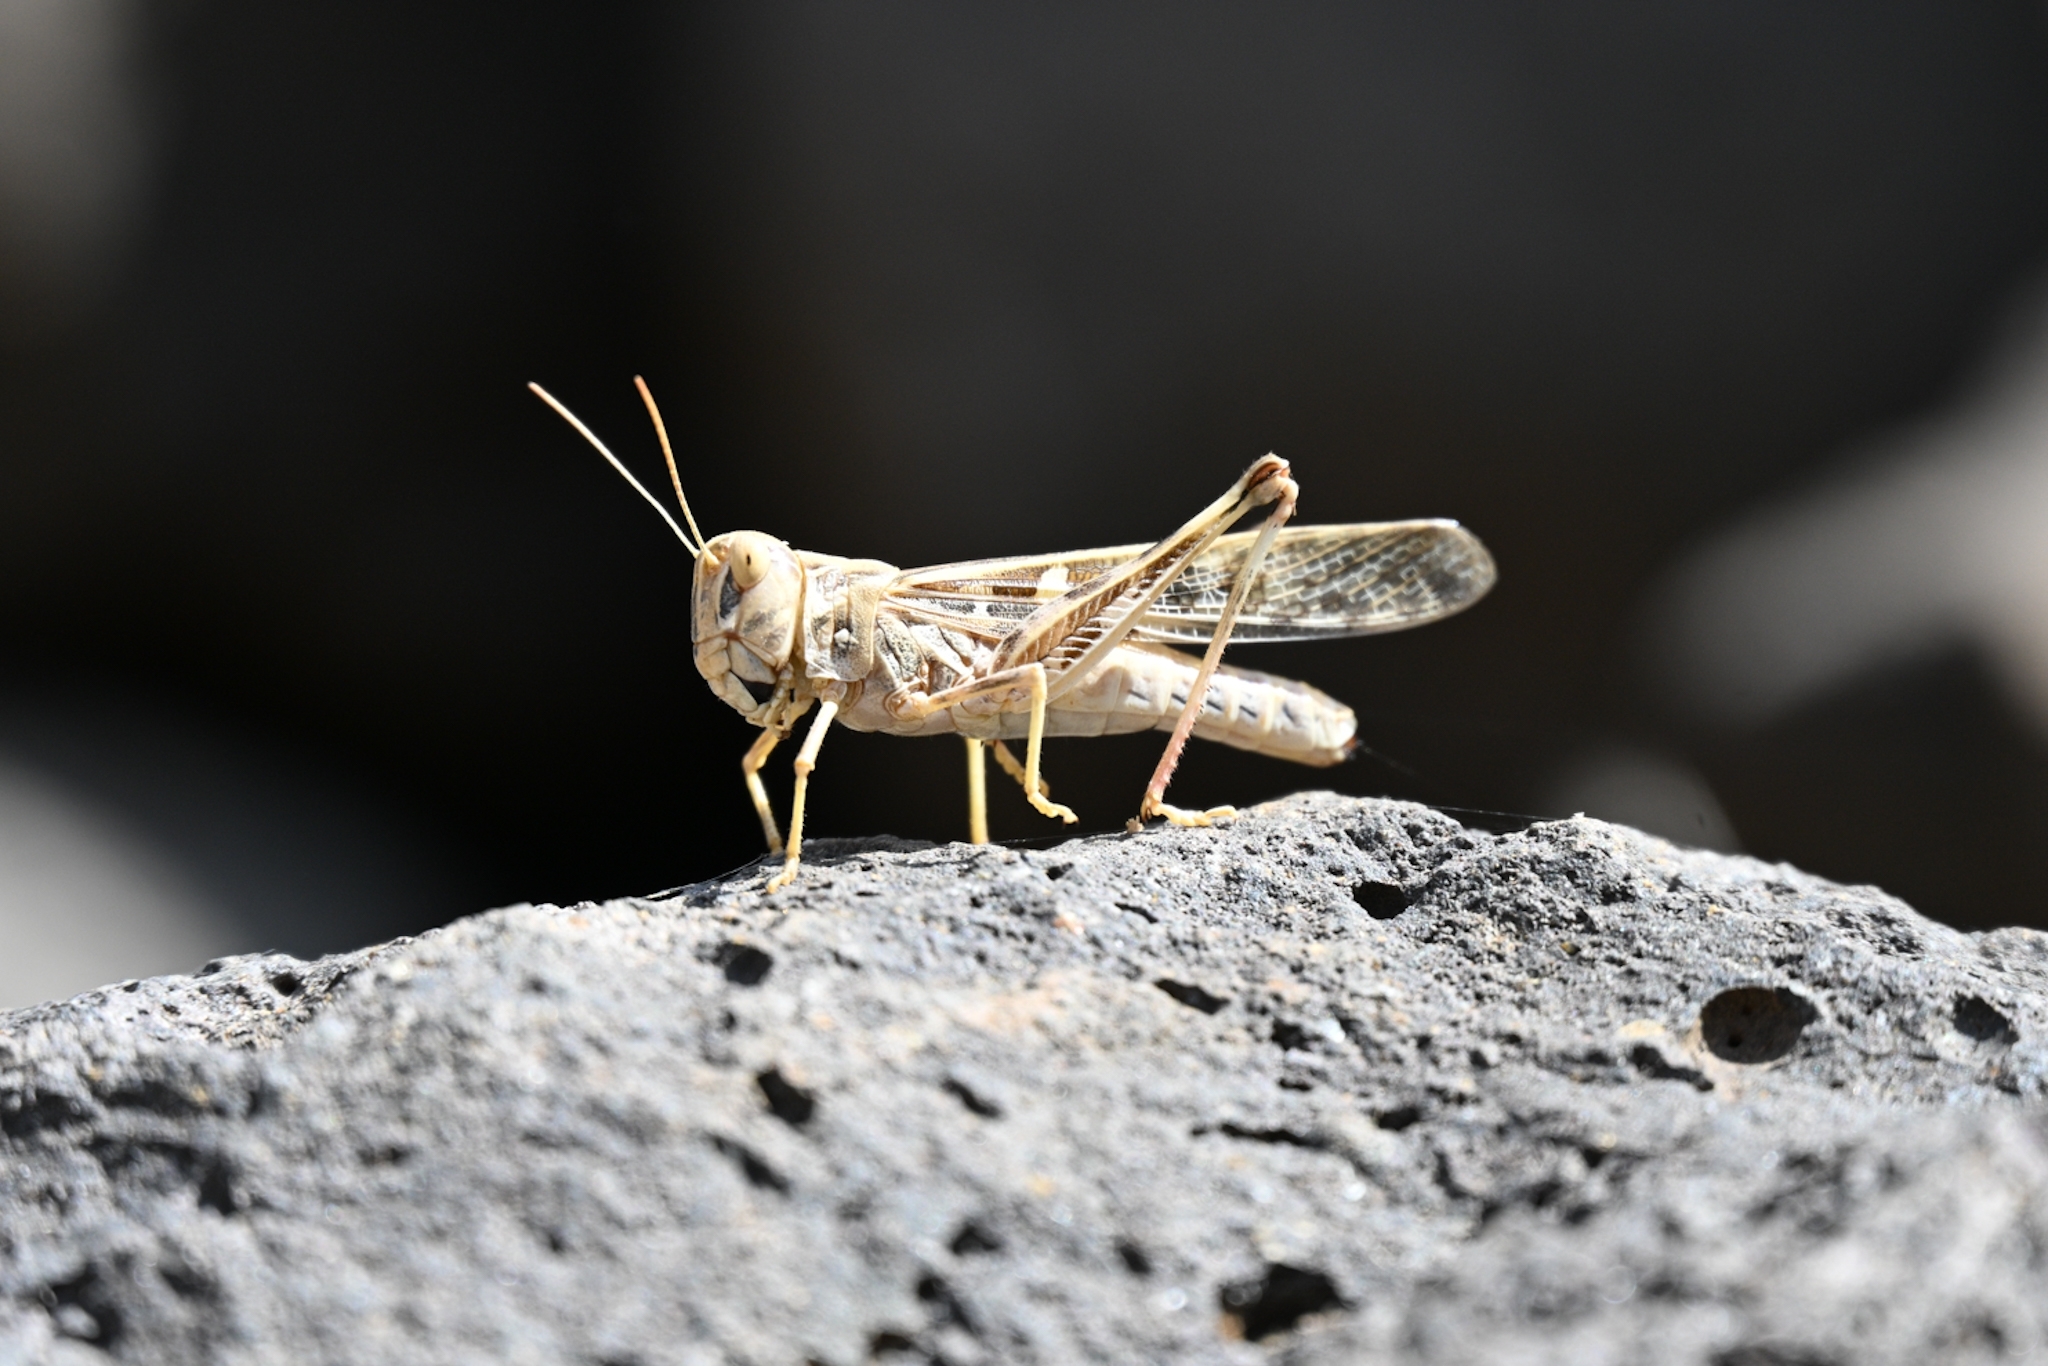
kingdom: Animalia
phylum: Arthropoda
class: Insecta
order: Orthoptera
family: Acrididae
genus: Oedaleus
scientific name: Oedaleus senegalensis
